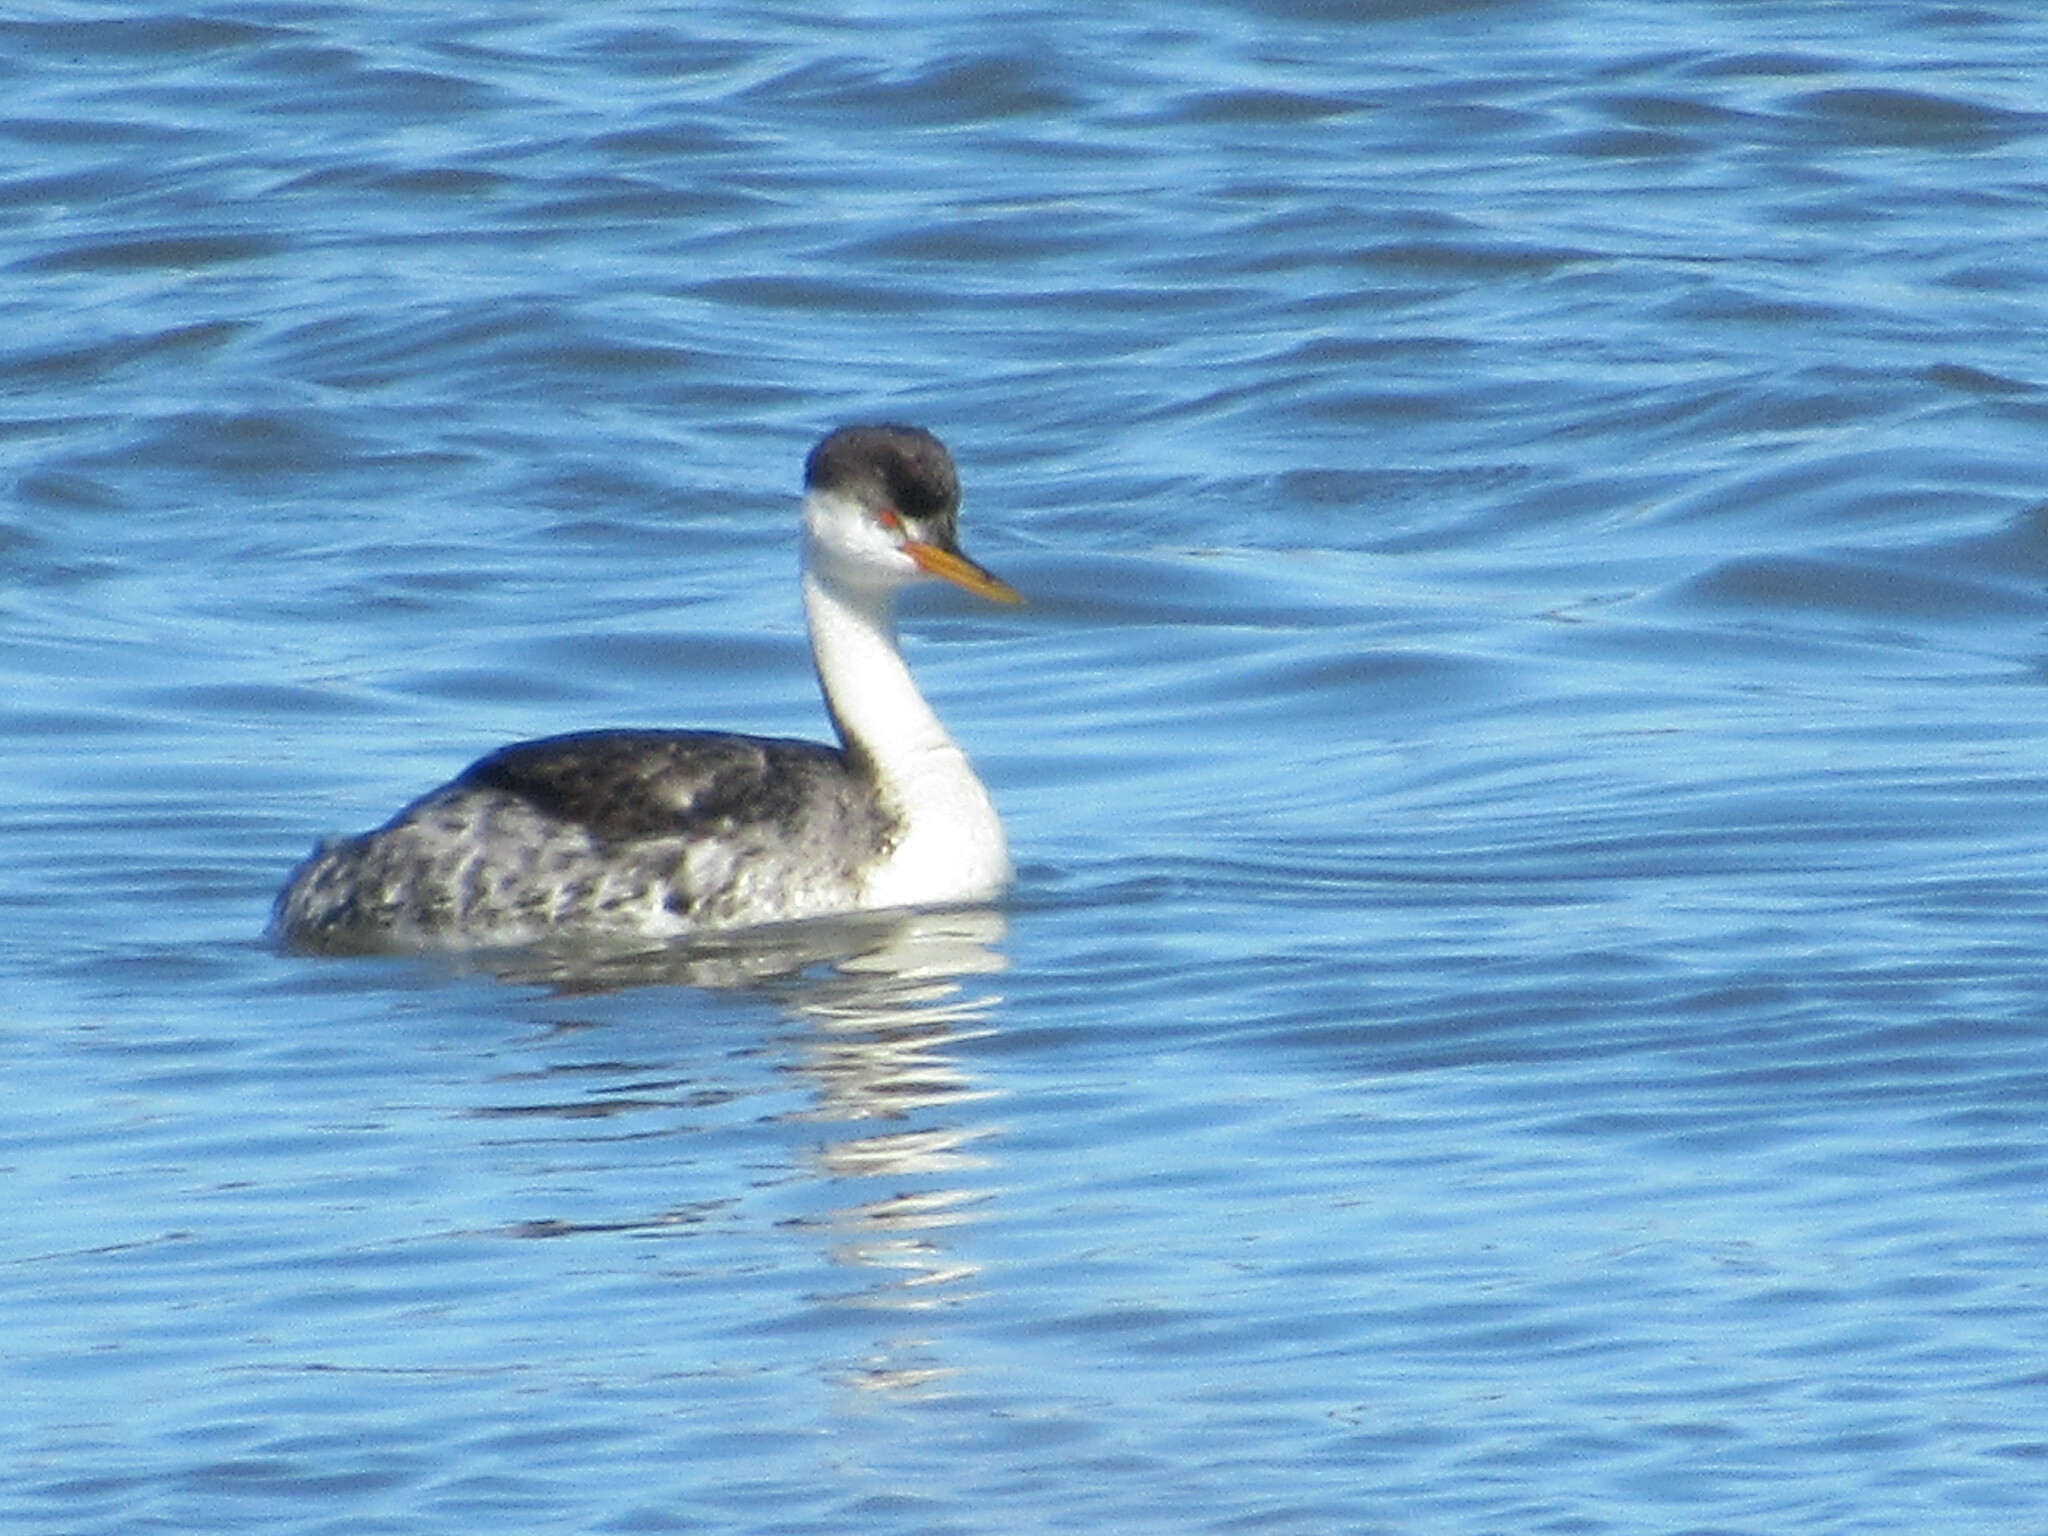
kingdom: Animalia
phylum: Chordata
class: Aves
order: Podicipediformes
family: Podicipedidae
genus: Aechmophorus
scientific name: Aechmophorus clarkii
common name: Clark's grebe
